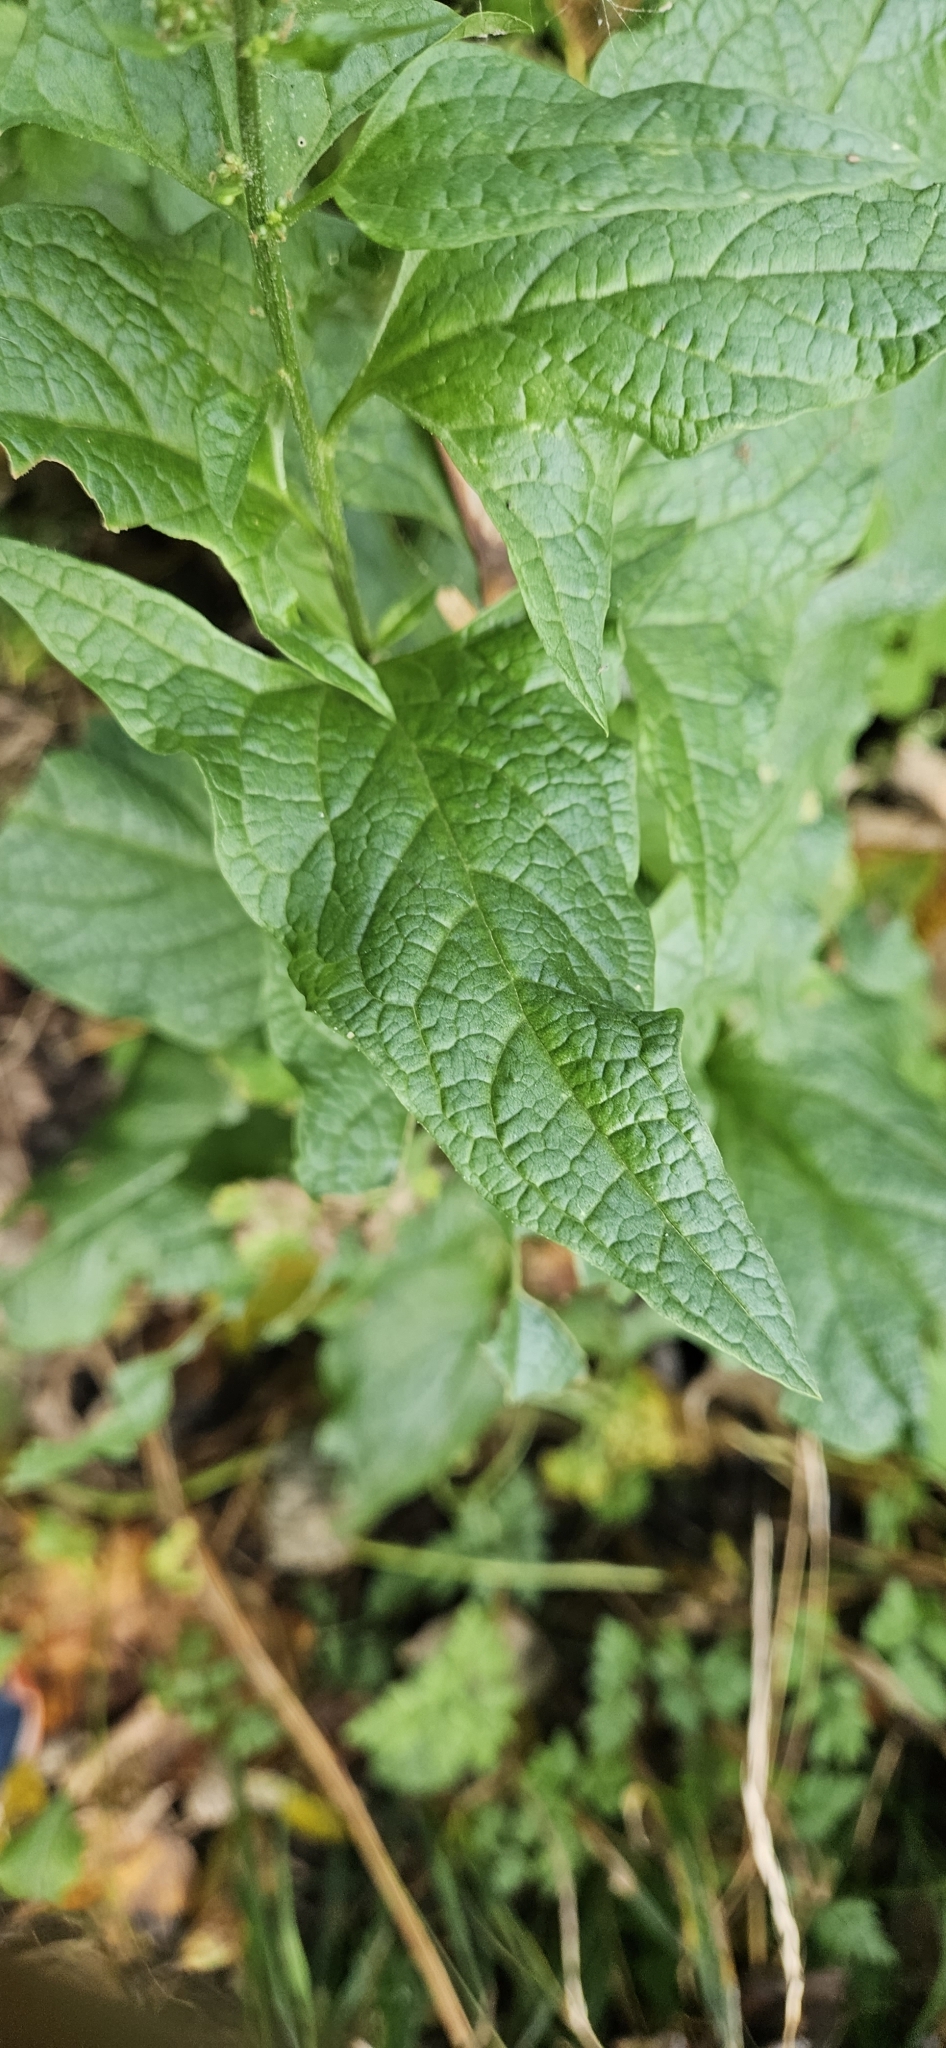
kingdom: Plantae
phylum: Tracheophyta
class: Magnoliopsida
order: Caryophyllales
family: Amaranthaceae
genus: Blitum
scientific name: Blitum bonus-henricus
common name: Good king henry
